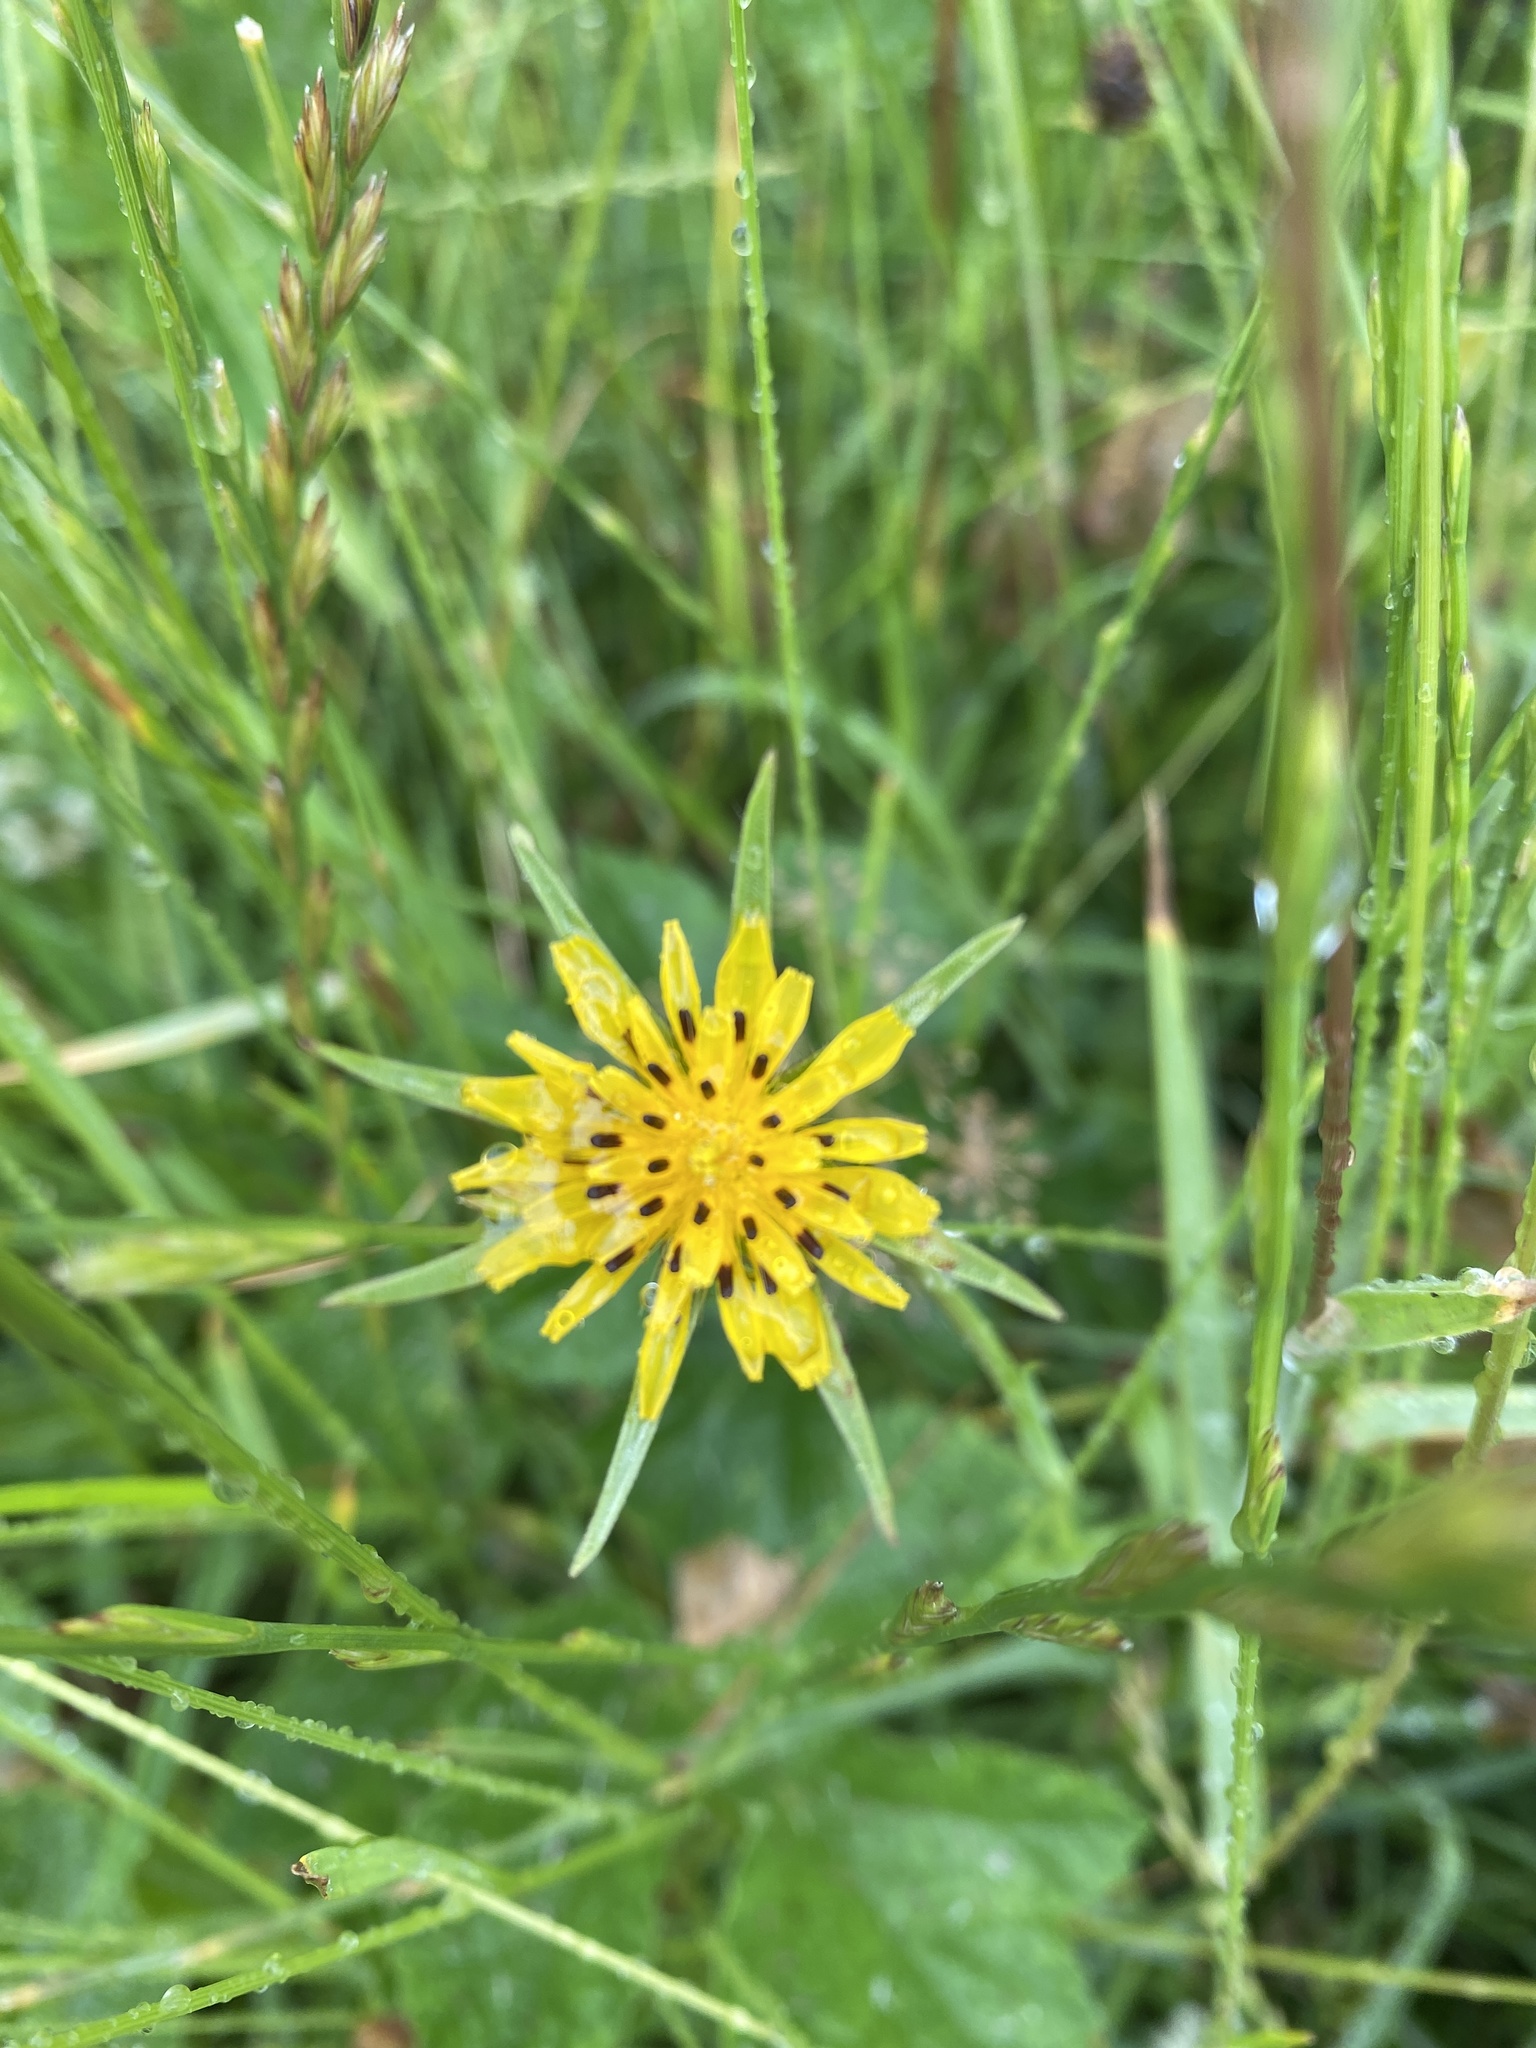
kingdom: Plantae
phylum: Tracheophyta
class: Magnoliopsida
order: Asterales
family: Asteraceae
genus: Tragopogon
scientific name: Tragopogon minor
